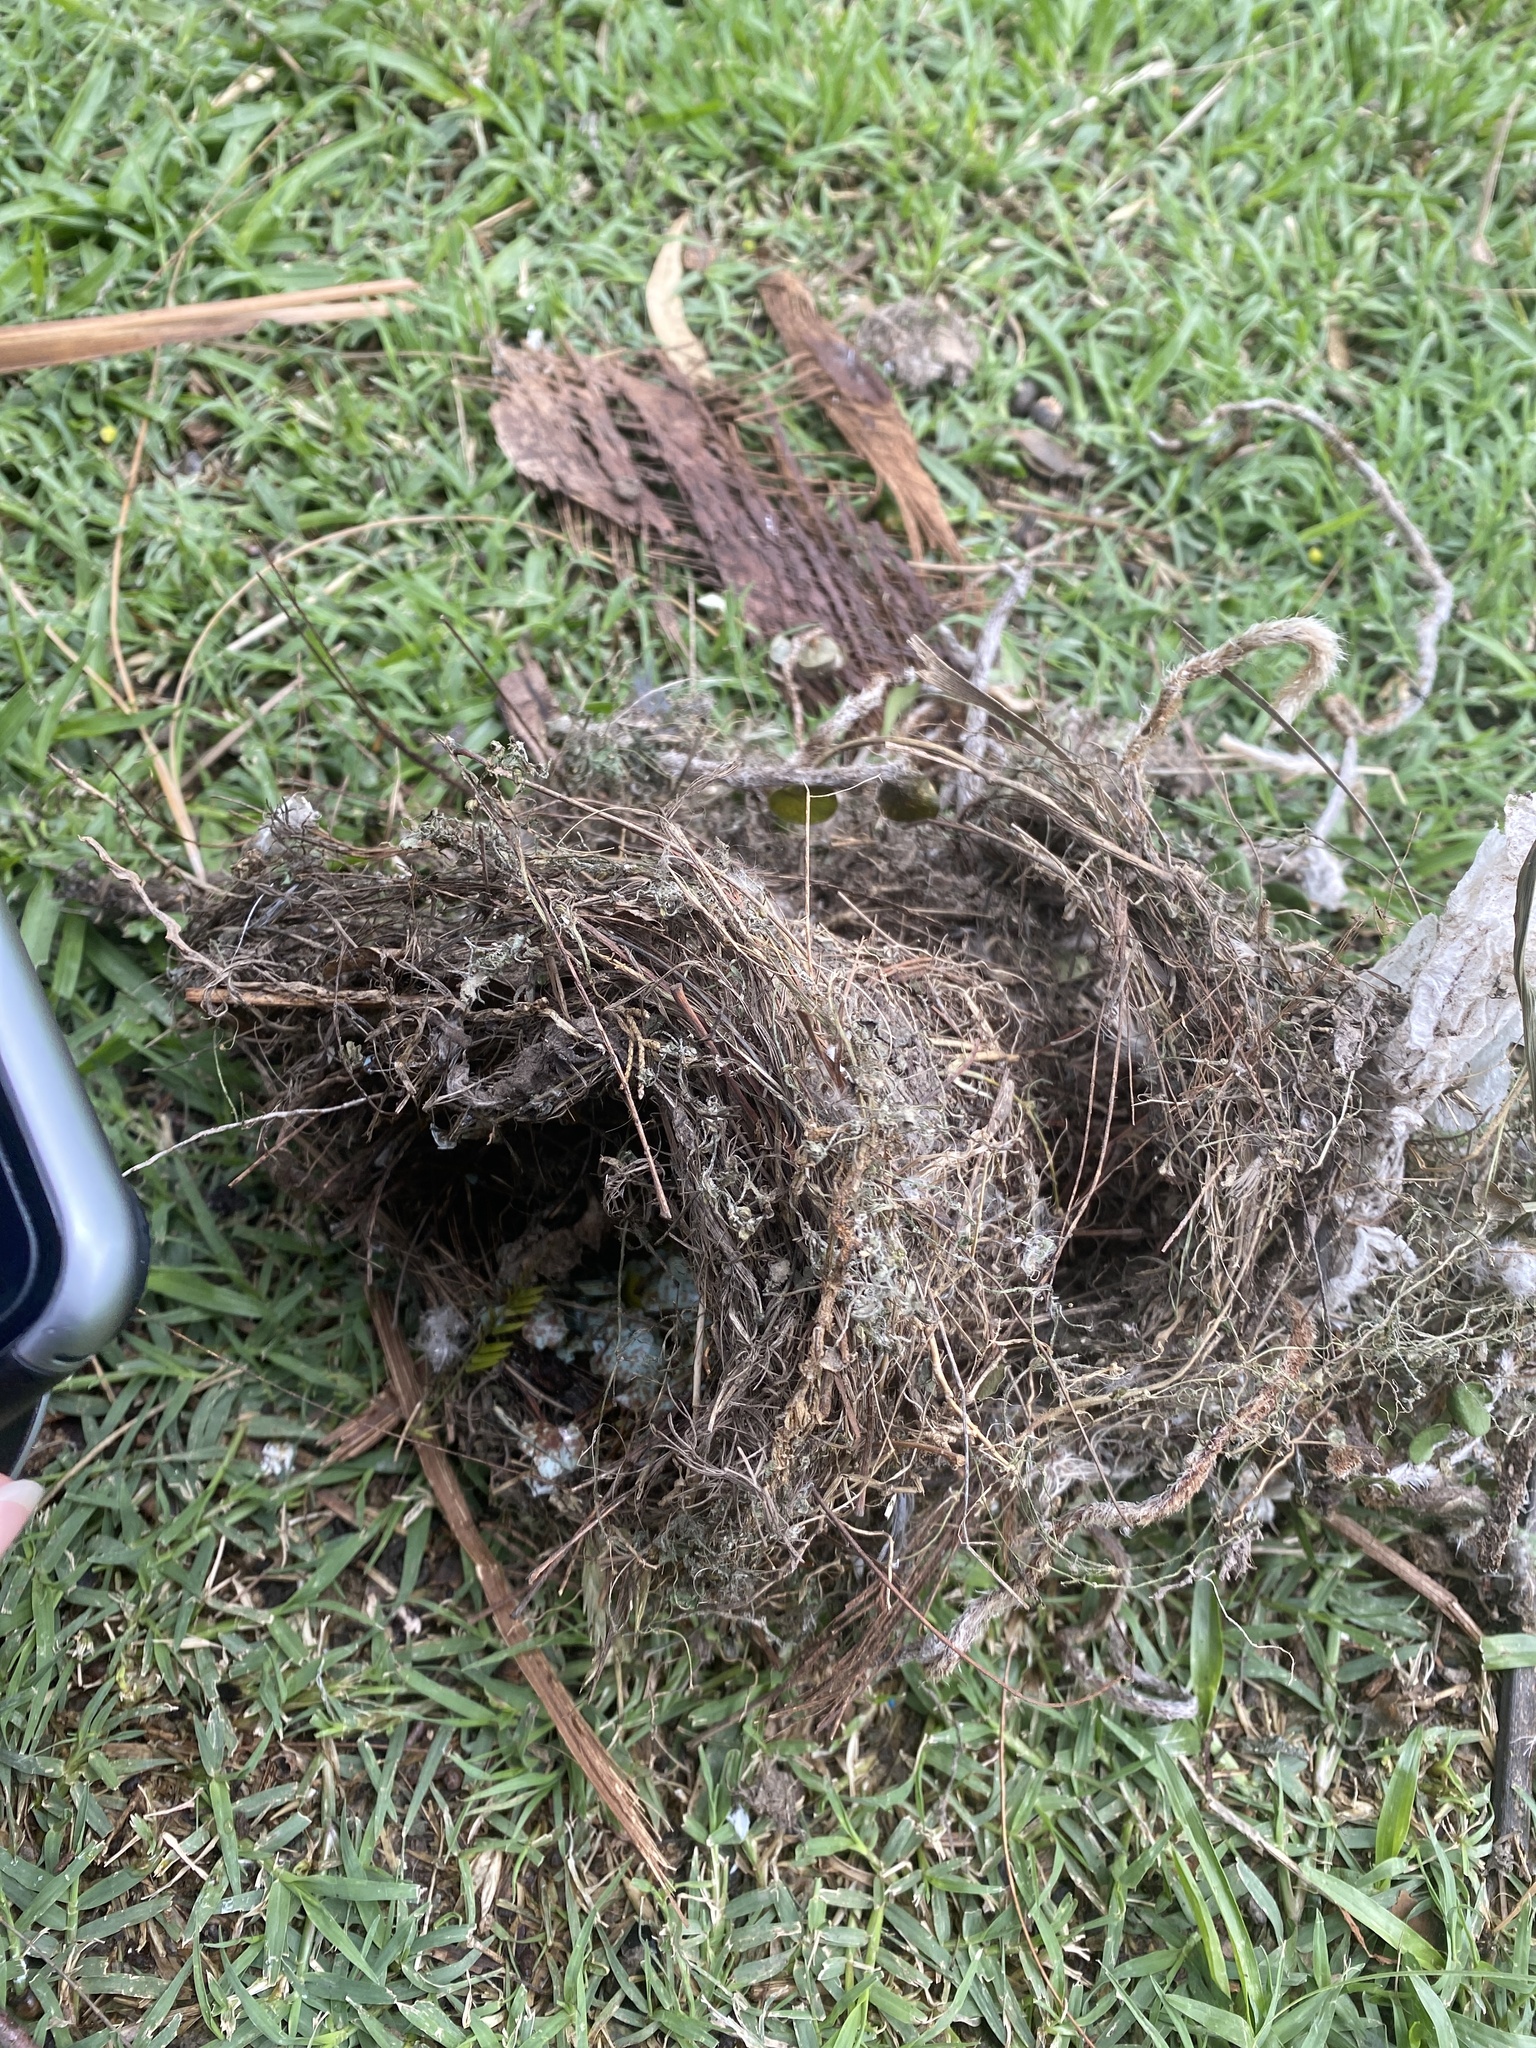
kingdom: Animalia
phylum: Chordata
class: Aves
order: Passeriformes
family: Turdidae
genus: Turdus
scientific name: Turdus rufiventris
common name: Rufous-bellied thrush
